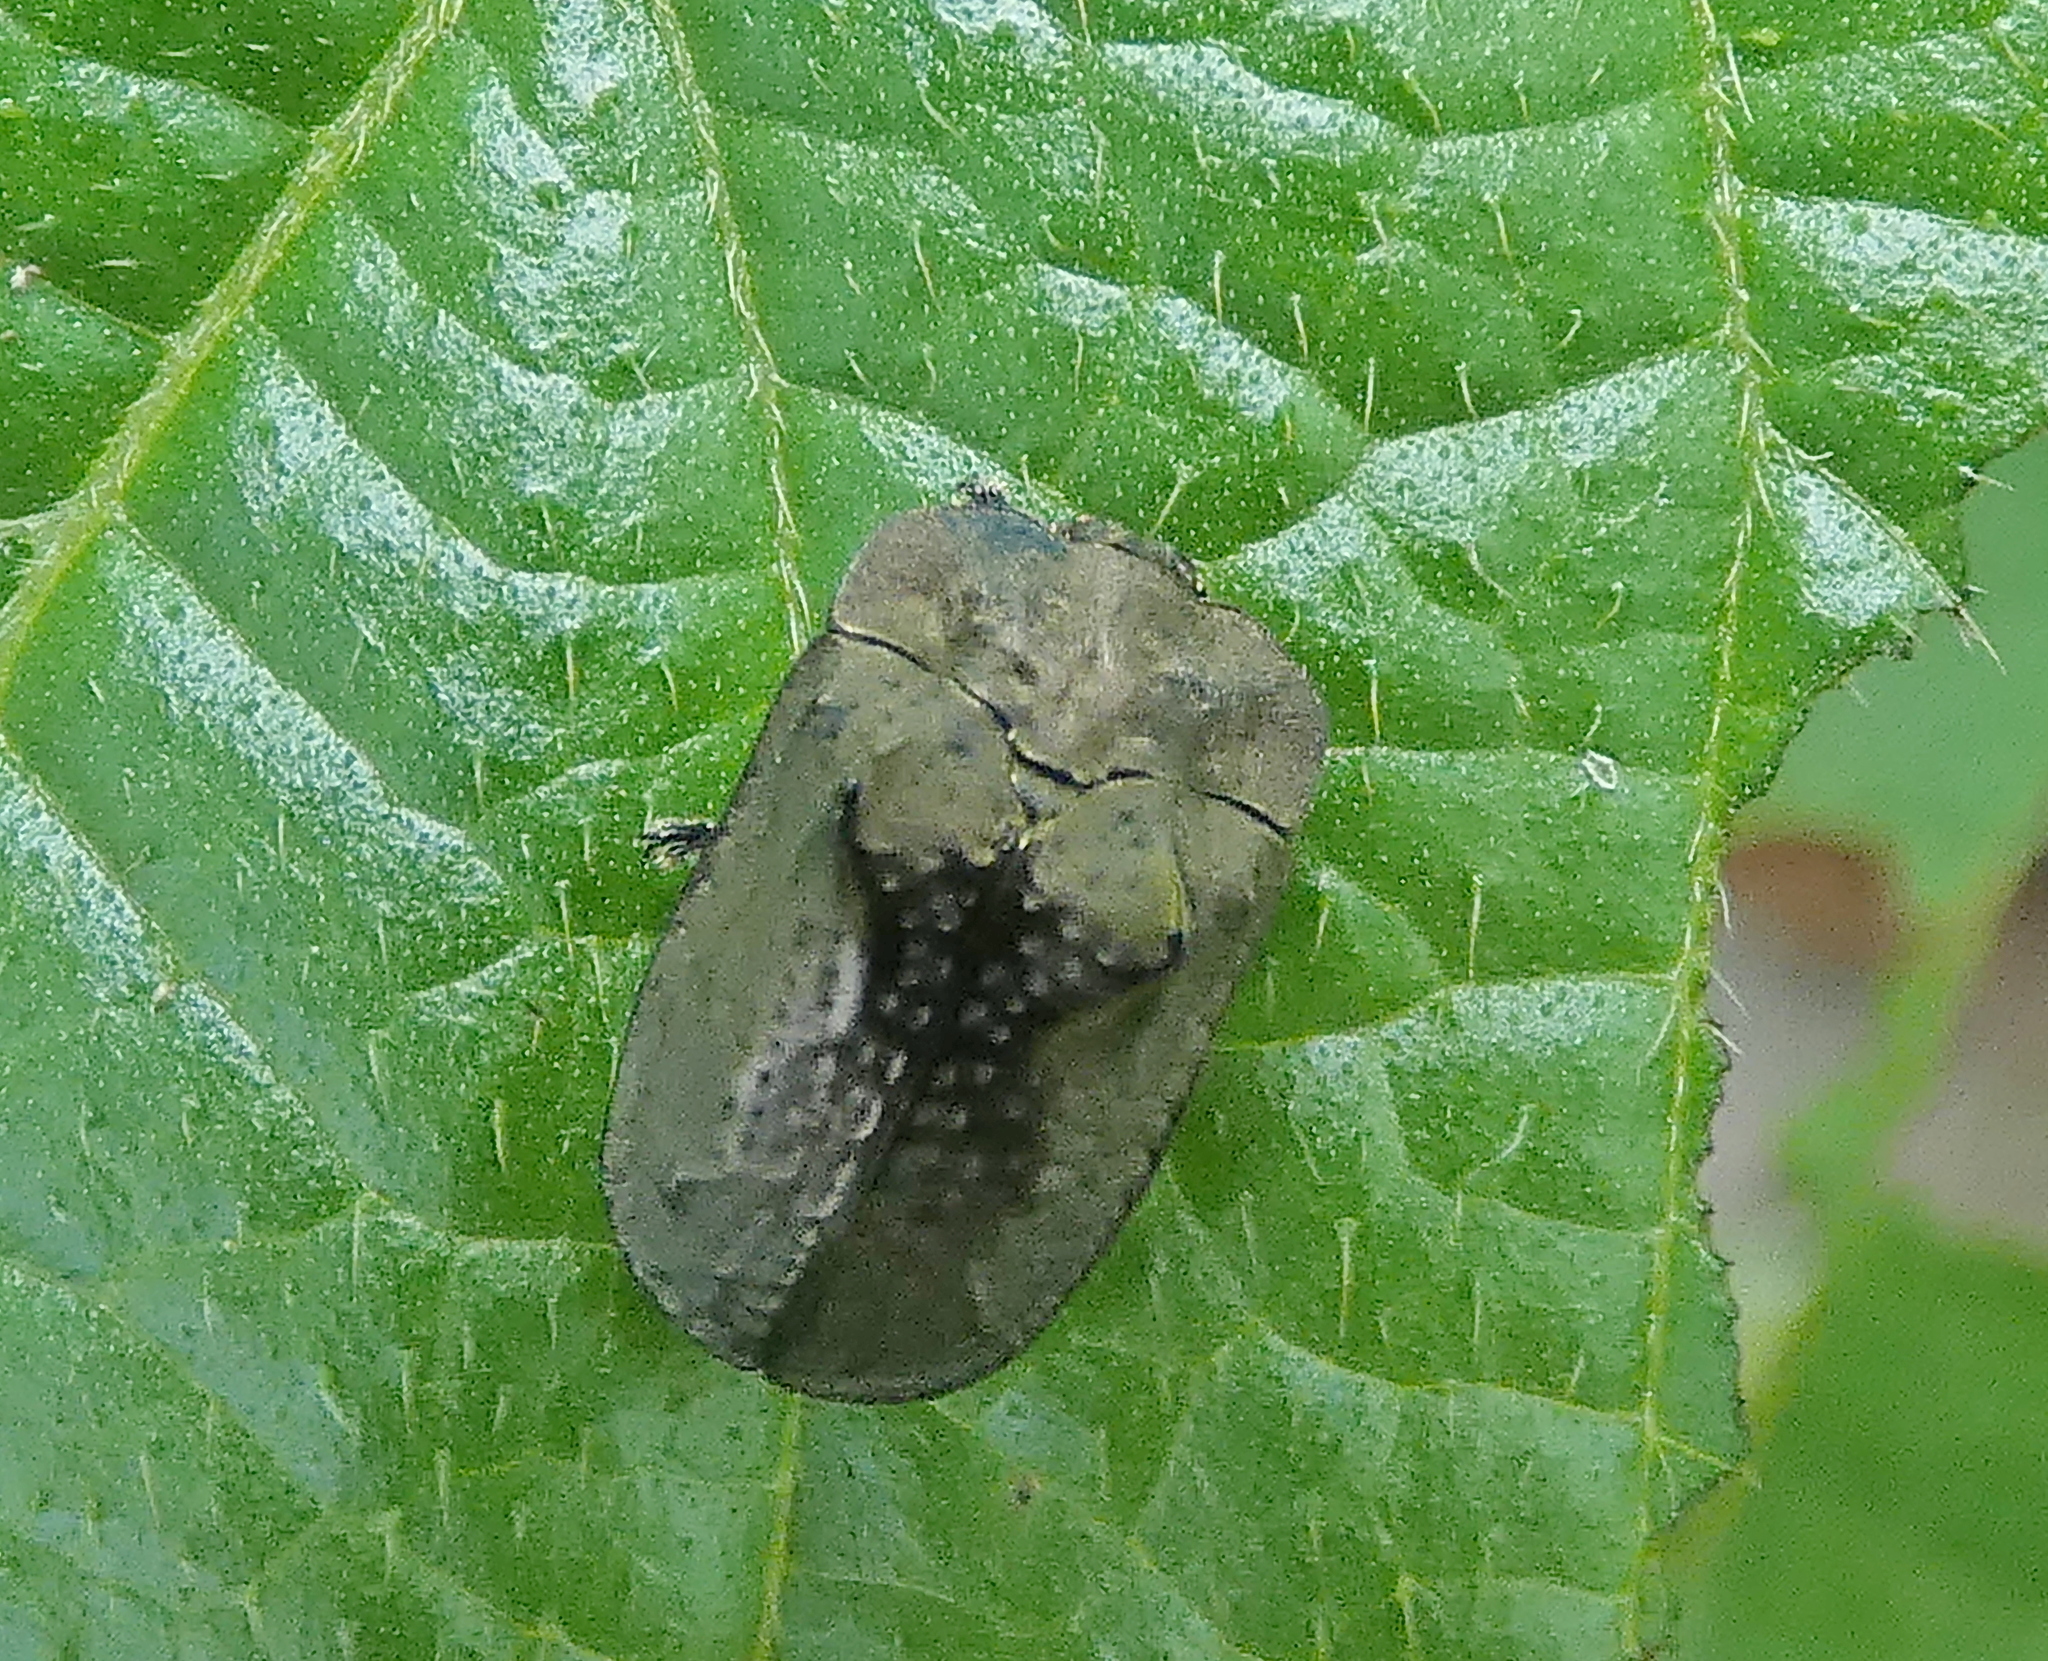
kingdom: Animalia
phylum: Arthropoda
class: Insecta
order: Coleoptera
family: Chrysomelidae
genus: Chlamydocassis
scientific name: Chlamydocassis bicornuta
